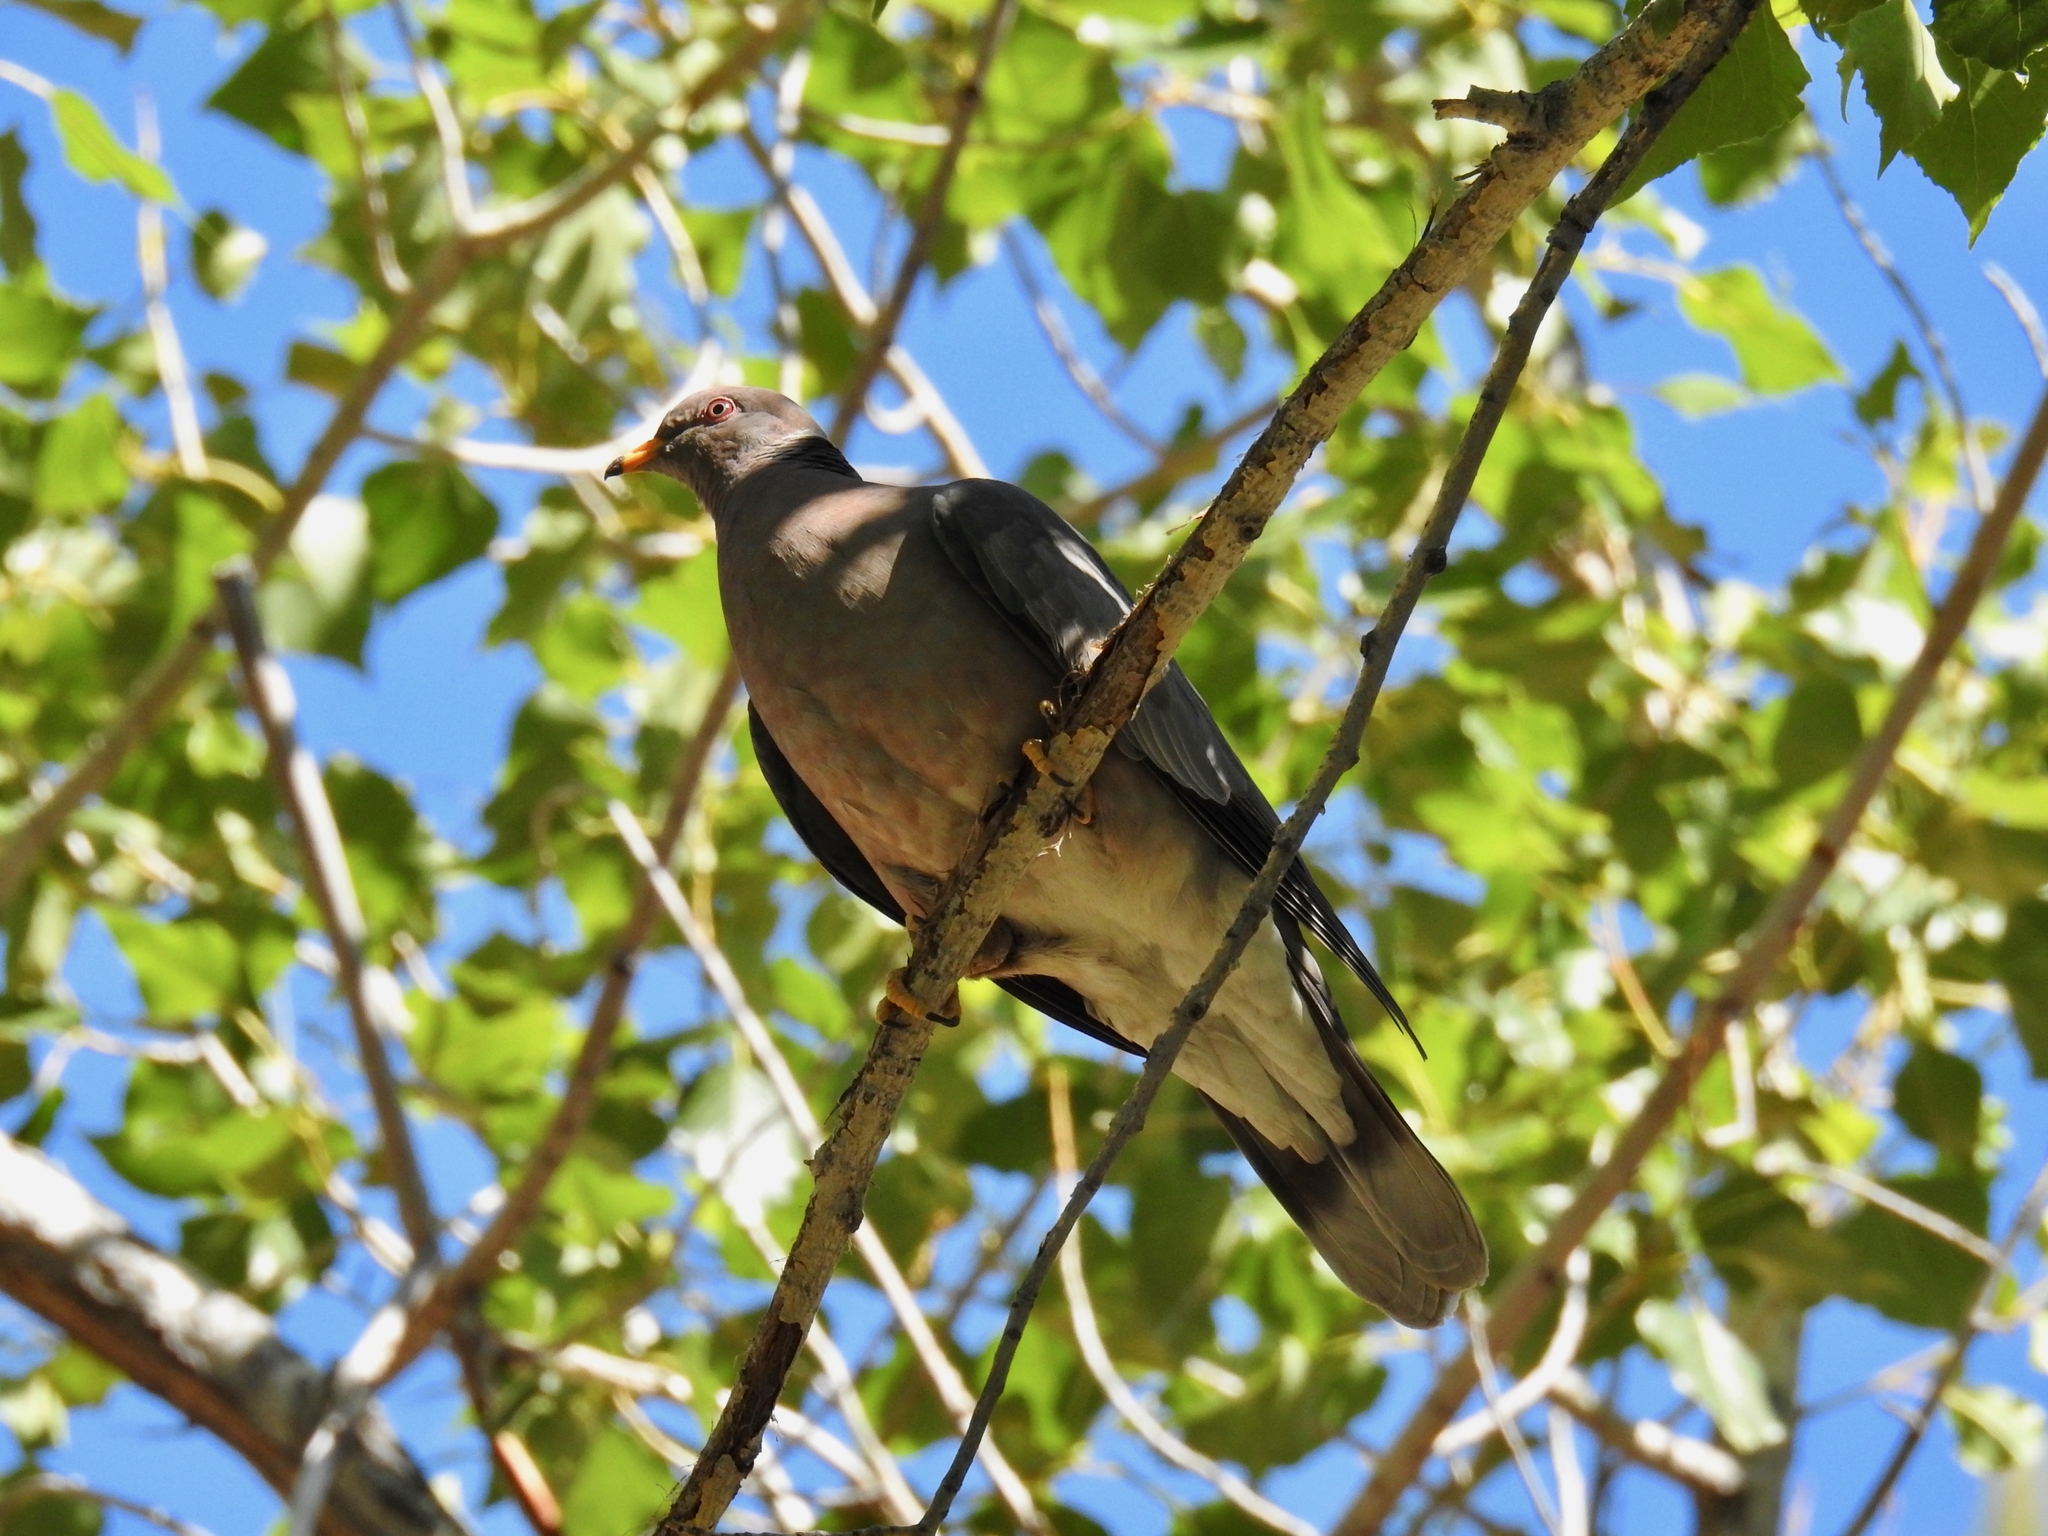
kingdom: Animalia
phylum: Chordata
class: Aves
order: Columbiformes
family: Columbidae
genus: Patagioenas
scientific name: Patagioenas fasciata
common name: Band-tailed pigeon
